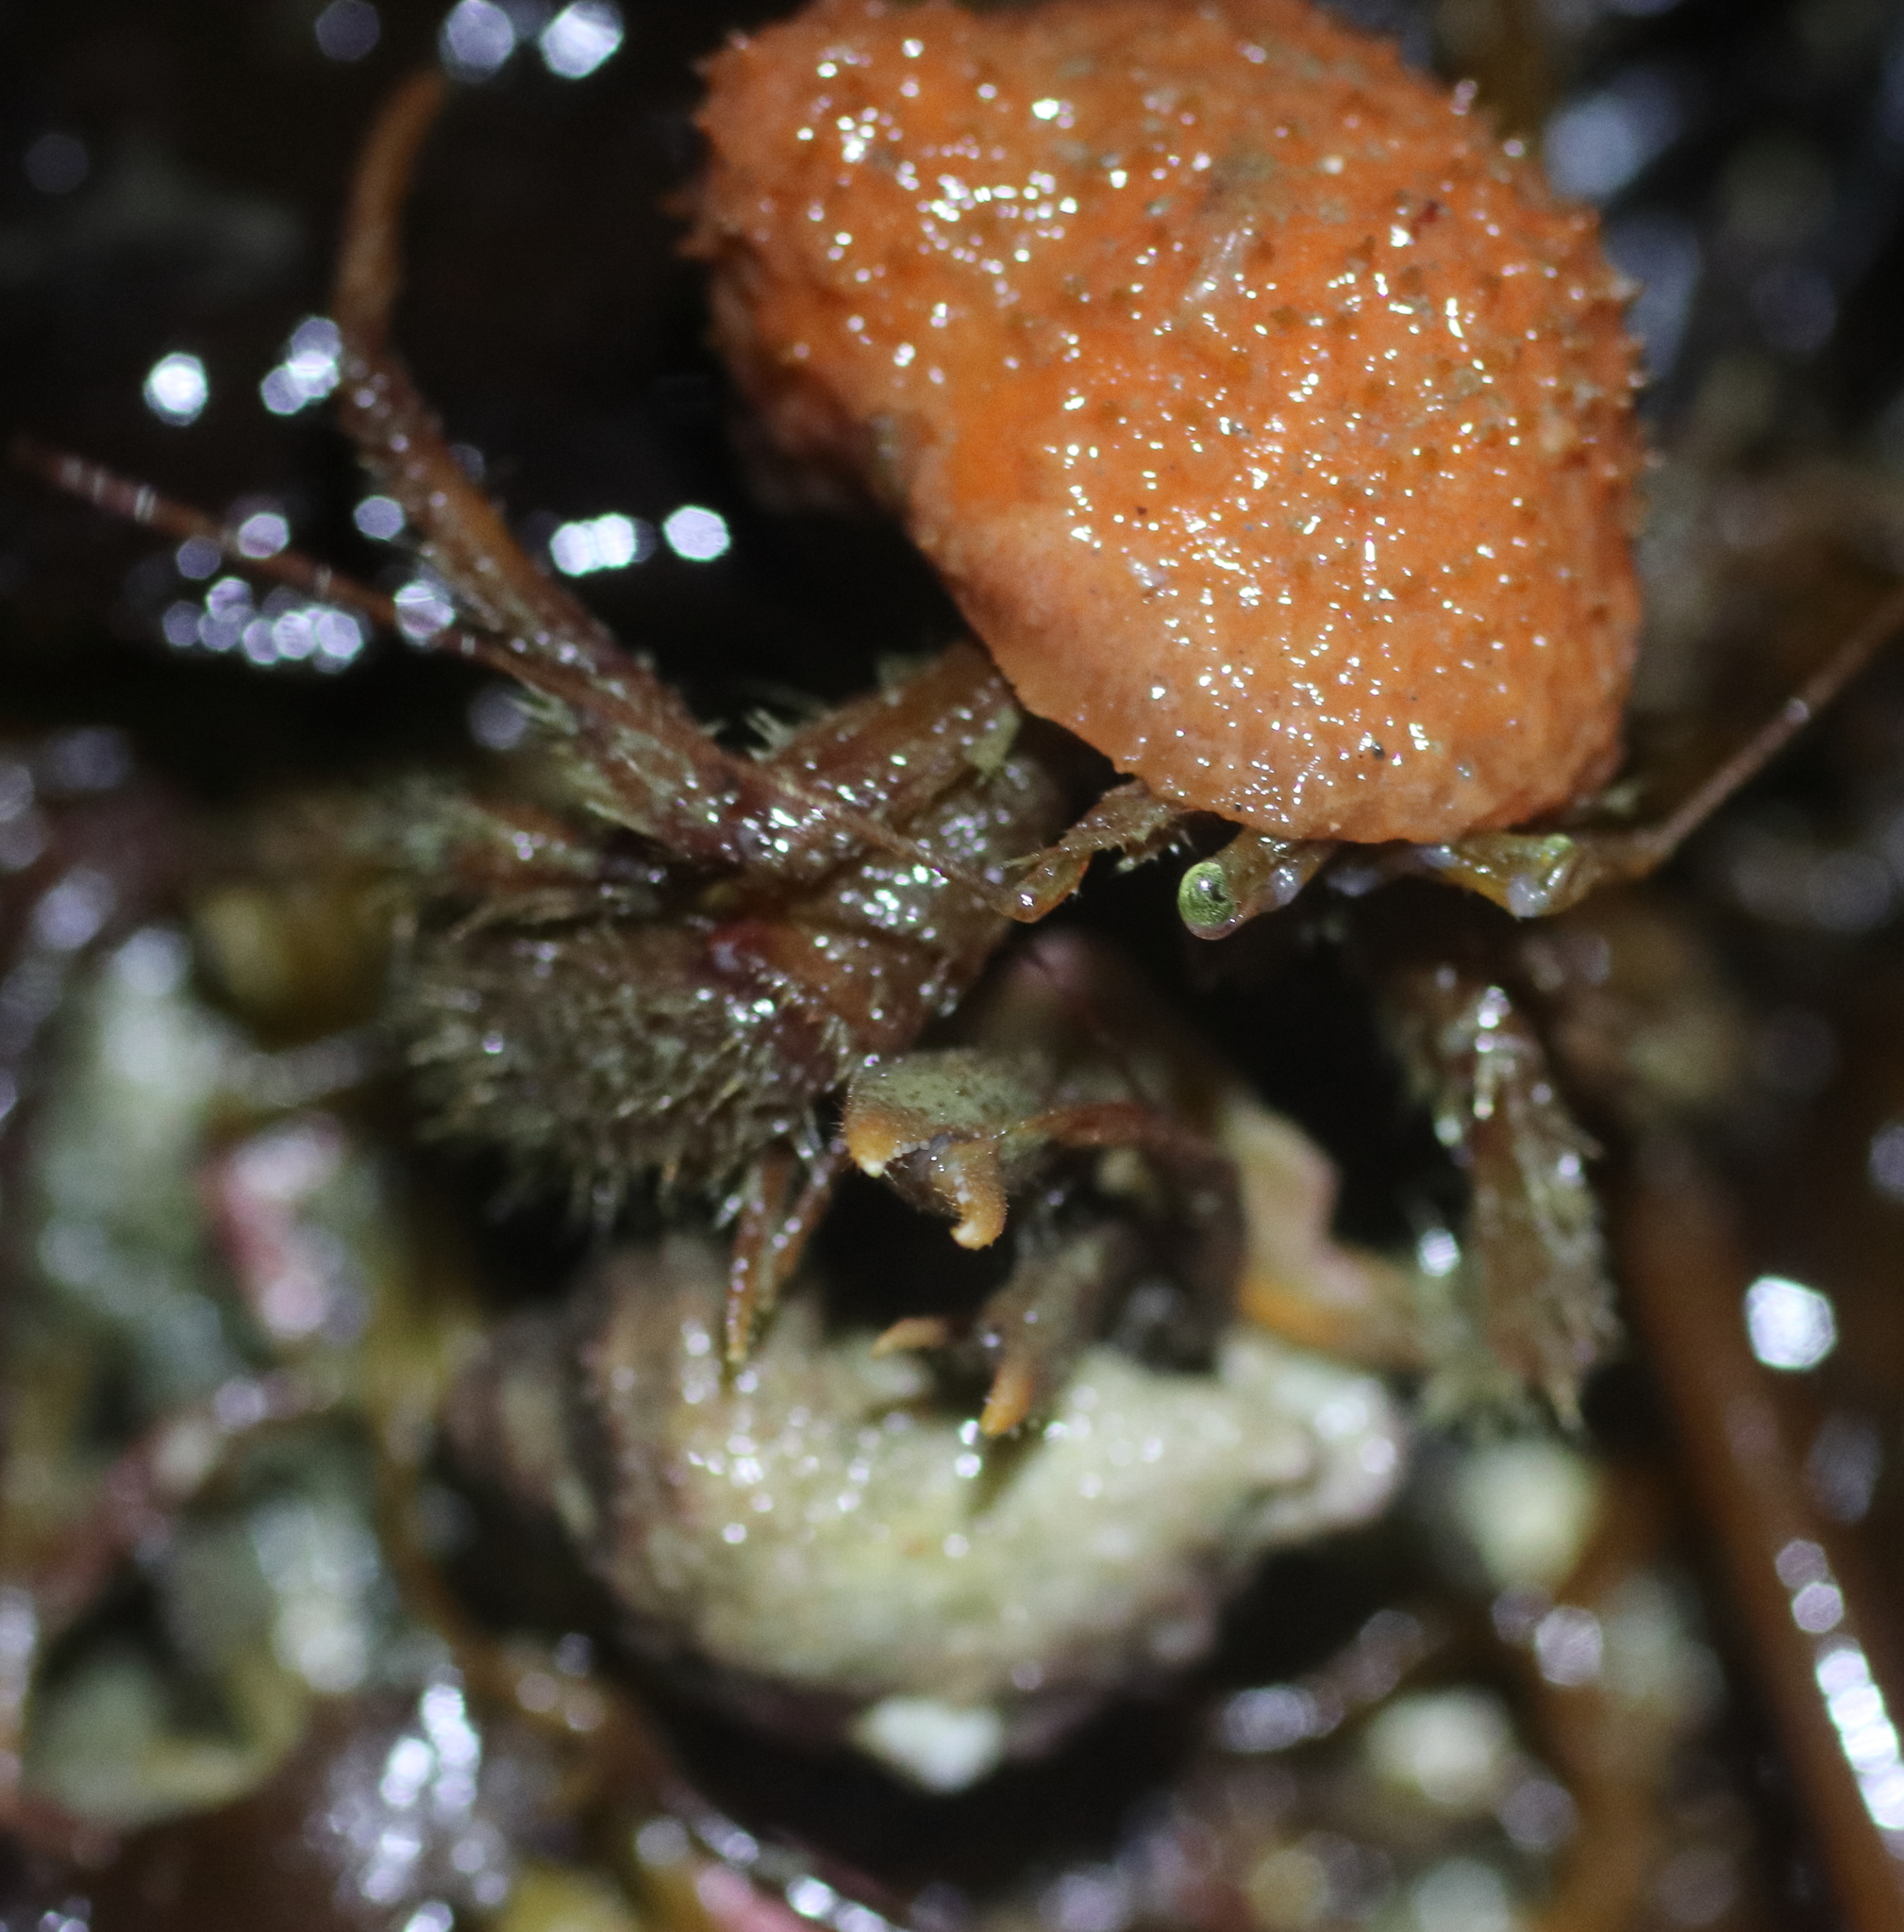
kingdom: Animalia
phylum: Arthropoda
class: Malacostraca
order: Decapoda
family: Paguridae
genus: Pagurus
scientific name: Pagurus dalli
